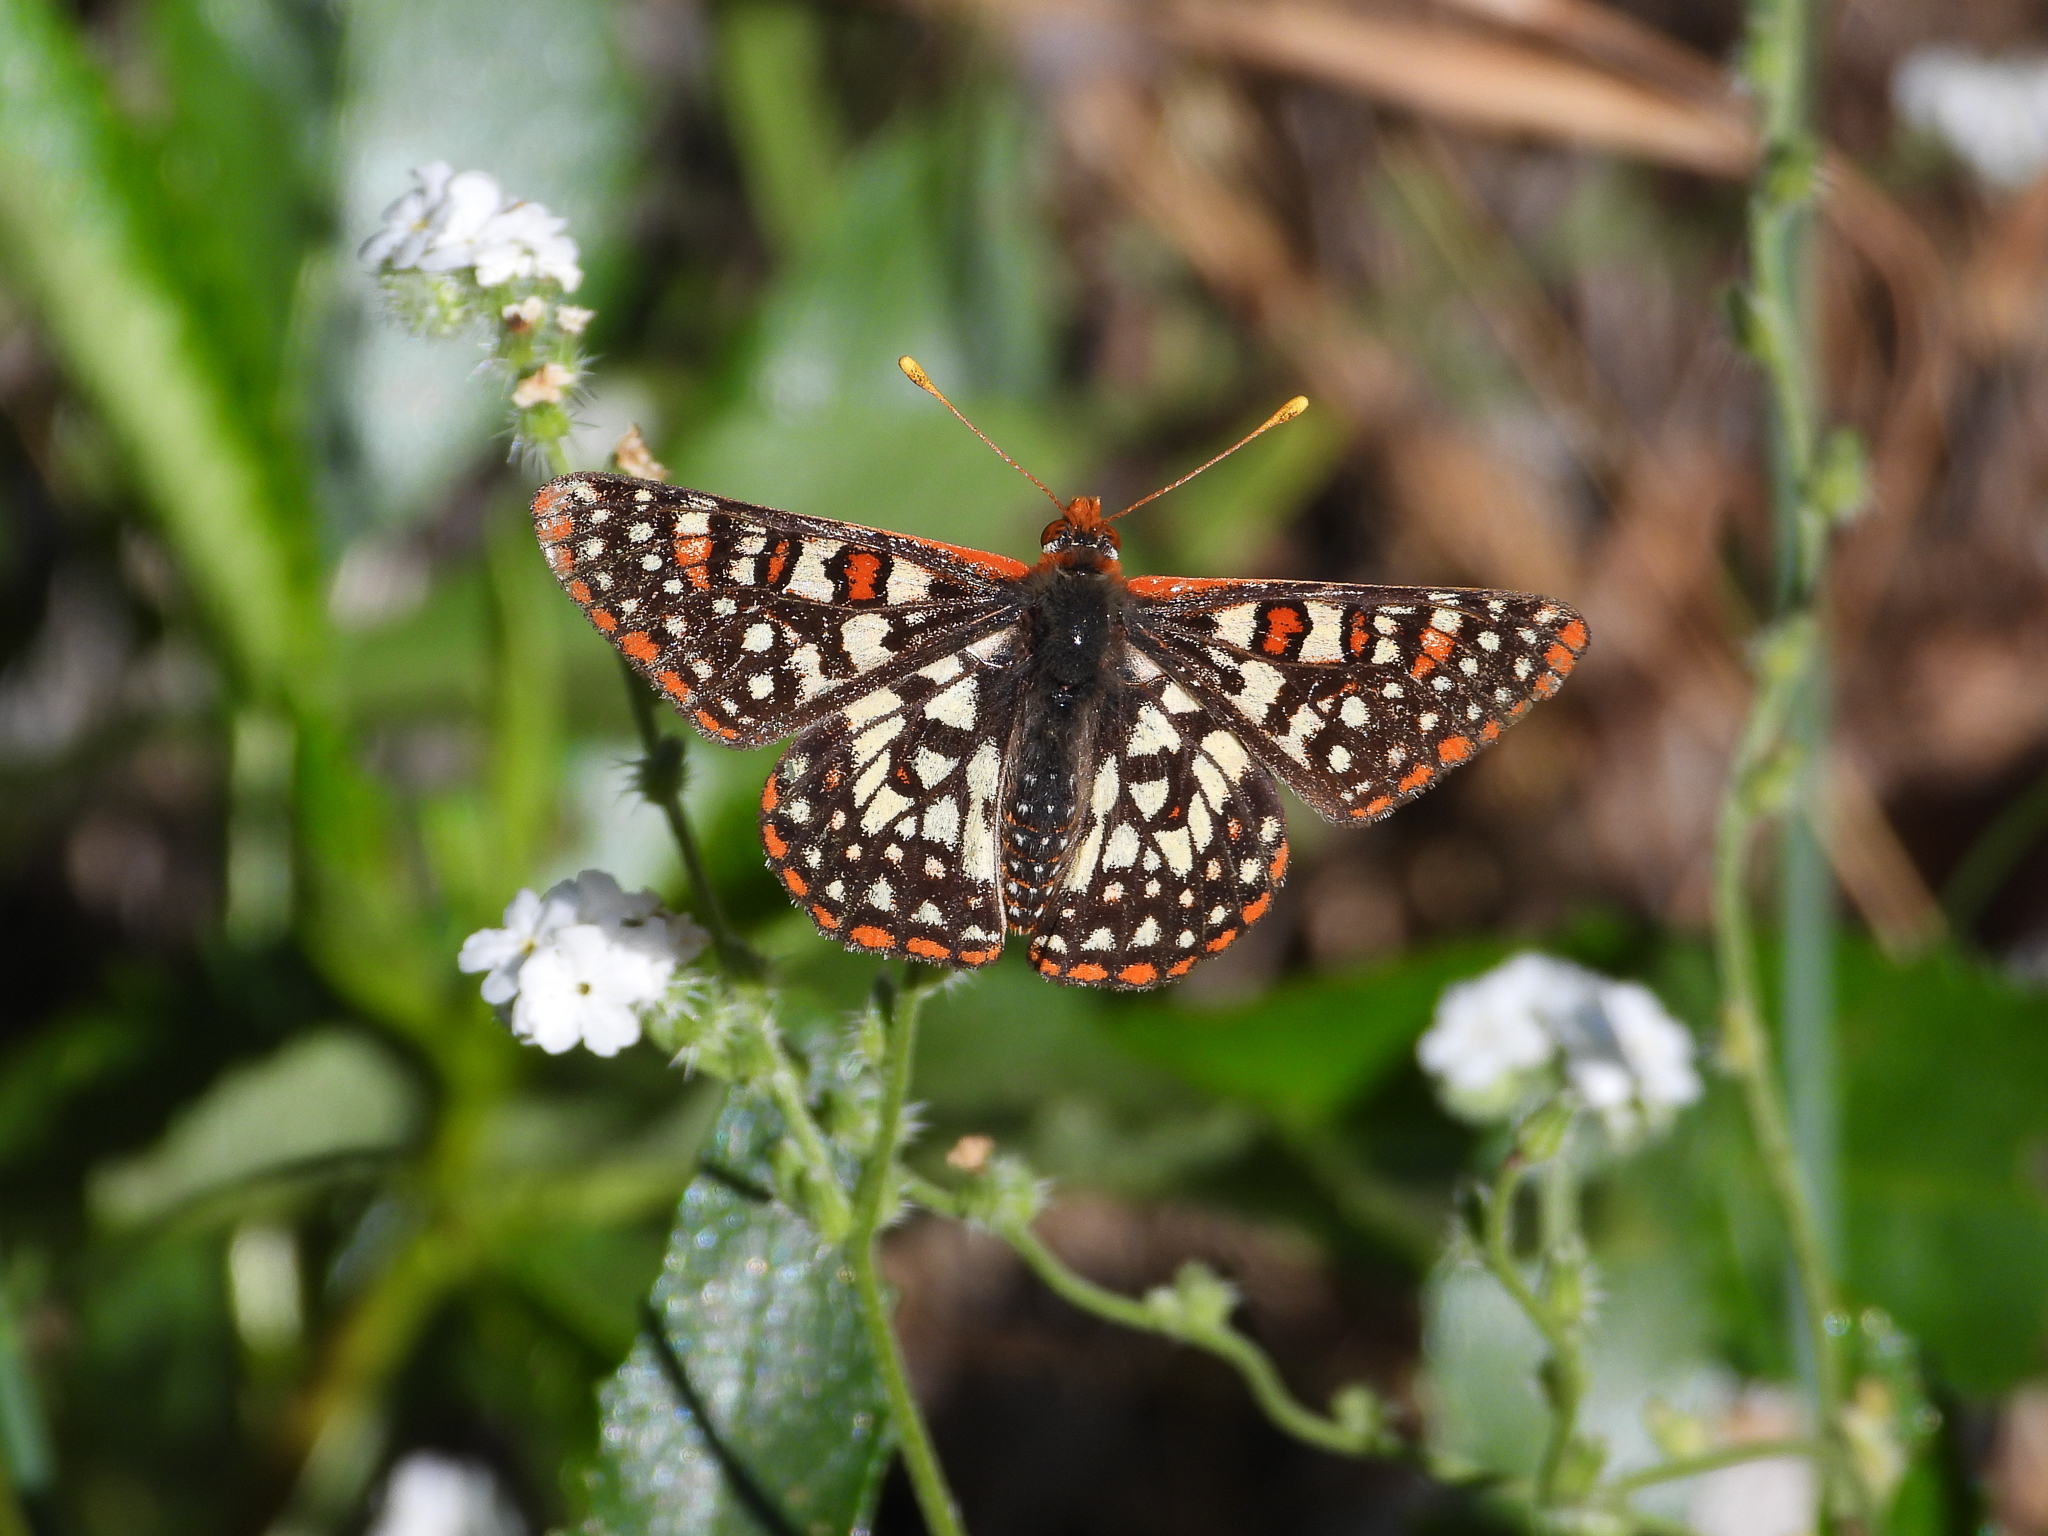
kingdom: Animalia
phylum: Arthropoda
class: Insecta
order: Lepidoptera
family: Nymphalidae
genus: Occidryas
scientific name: Occidryas chalcedona
